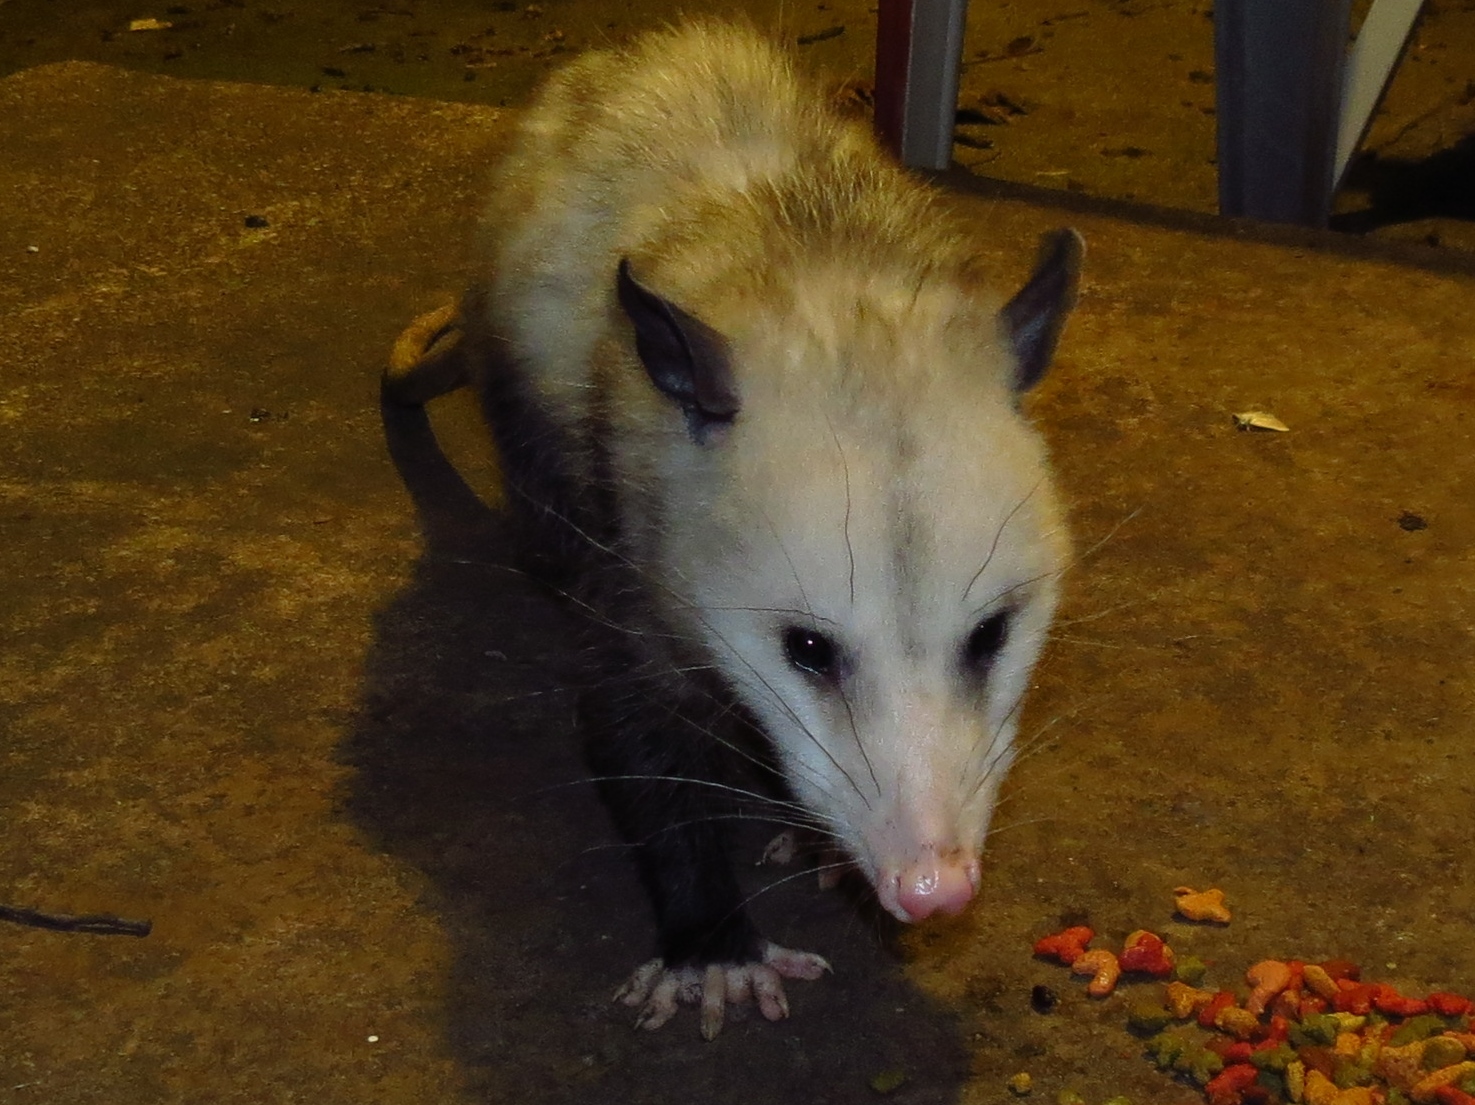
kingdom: Animalia
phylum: Chordata
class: Mammalia
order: Didelphimorphia
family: Didelphidae
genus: Didelphis
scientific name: Didelphis virginiana
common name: Virginia opossum
